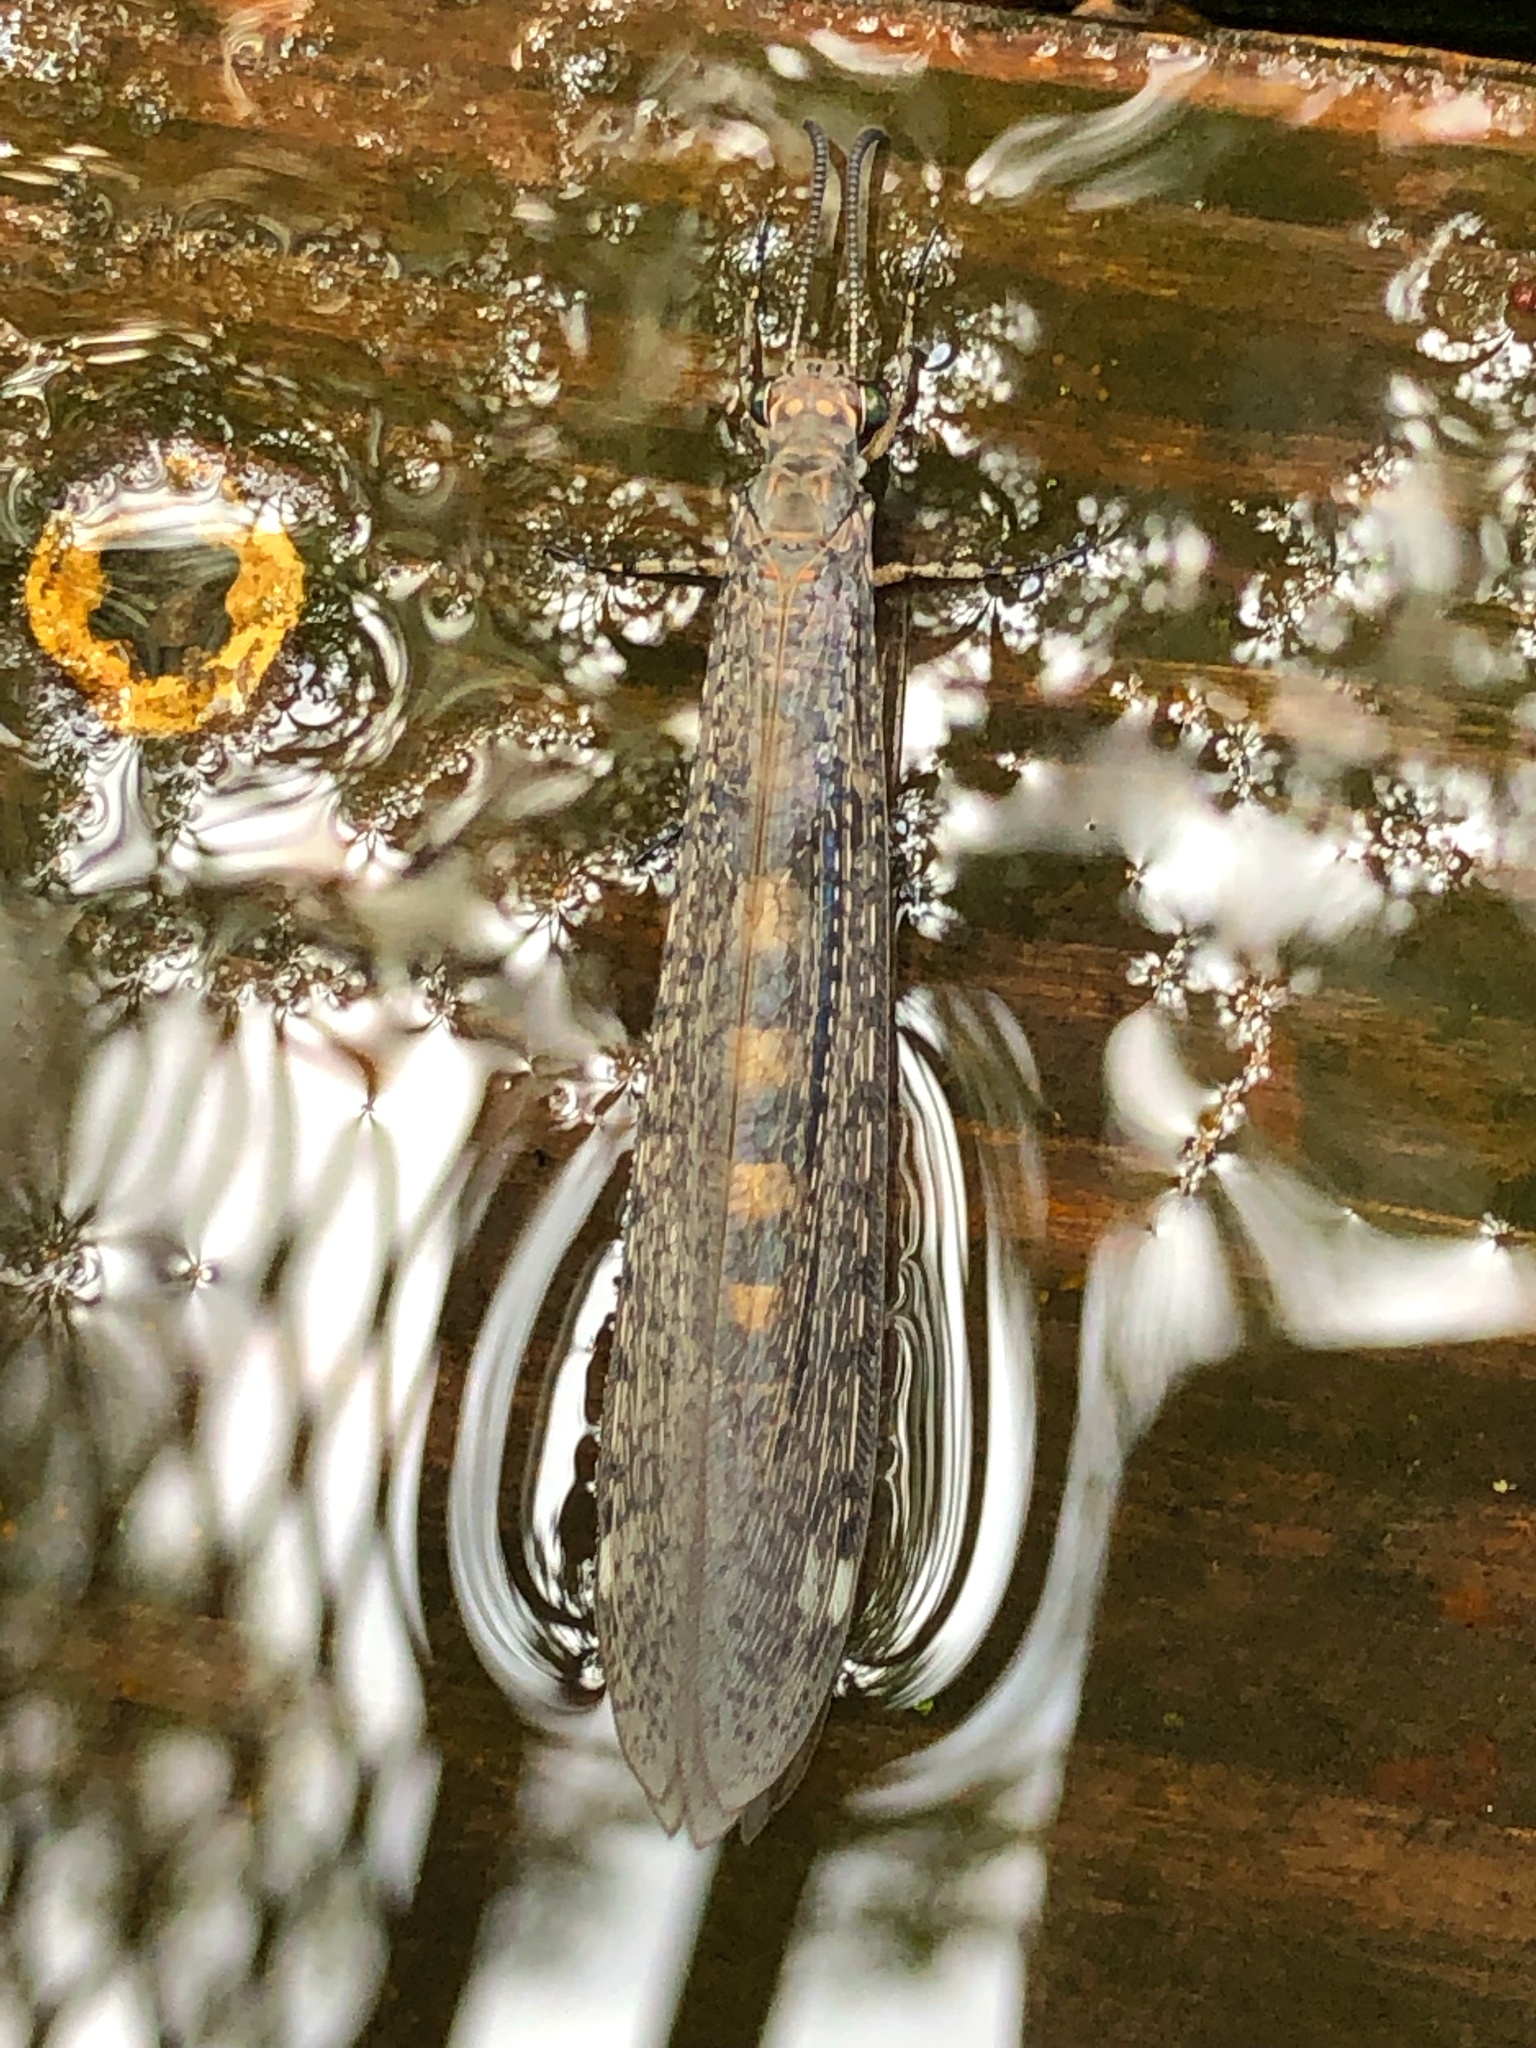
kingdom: Animalia
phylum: Arthropoda
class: Insecta
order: Neuroptera
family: Myrmeleontidae
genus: Myrmeleon
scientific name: Myrmeleon immaculatus
